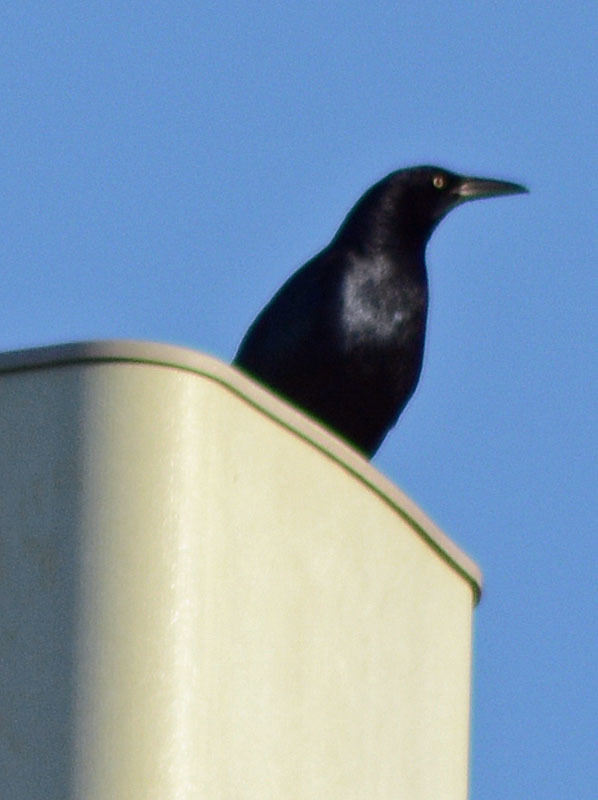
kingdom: Animalia
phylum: Chordata
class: Aves
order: Passeriformes
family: Icteridae
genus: Quiscalus
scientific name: Quiscalus mexicanus
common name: Great-tailed grackle
